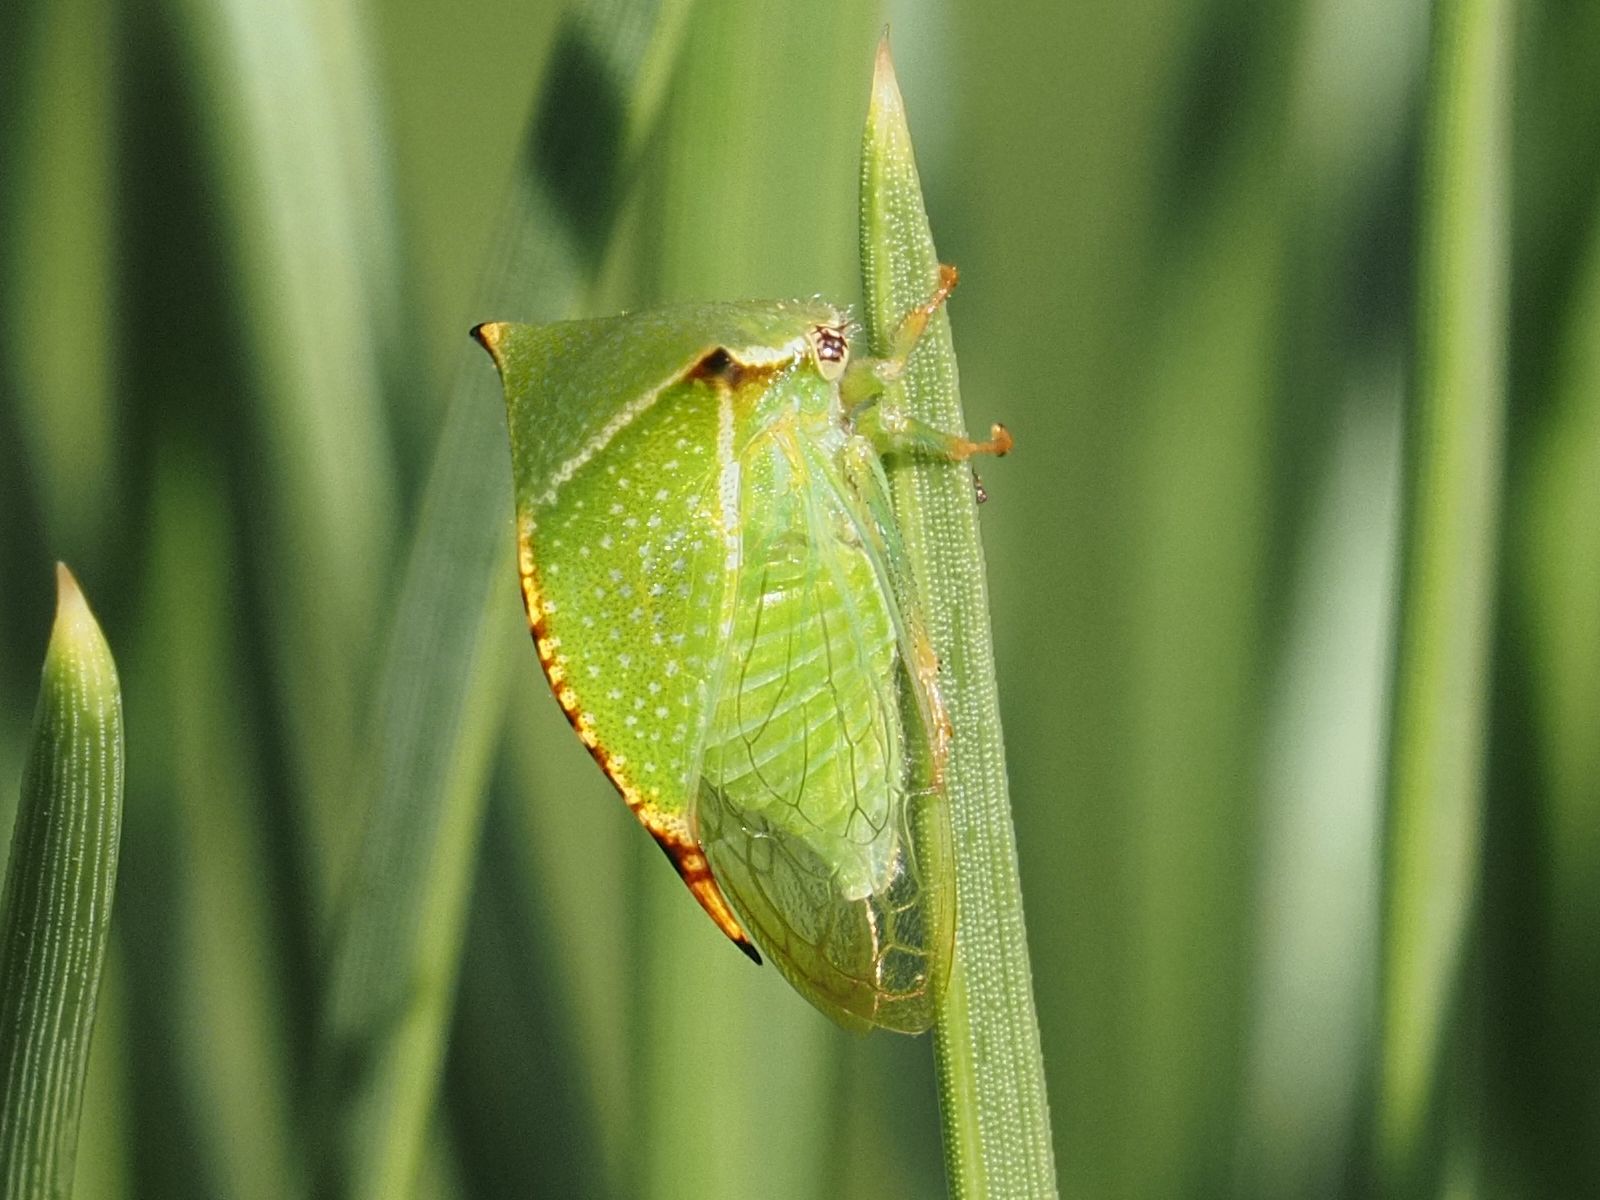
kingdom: Animalia
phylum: Arthropoda
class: Insecta
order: Hemiptera
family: Membracidae
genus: Stictocephala
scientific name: Stictocephala bisonia
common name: American buffalo treehopper
